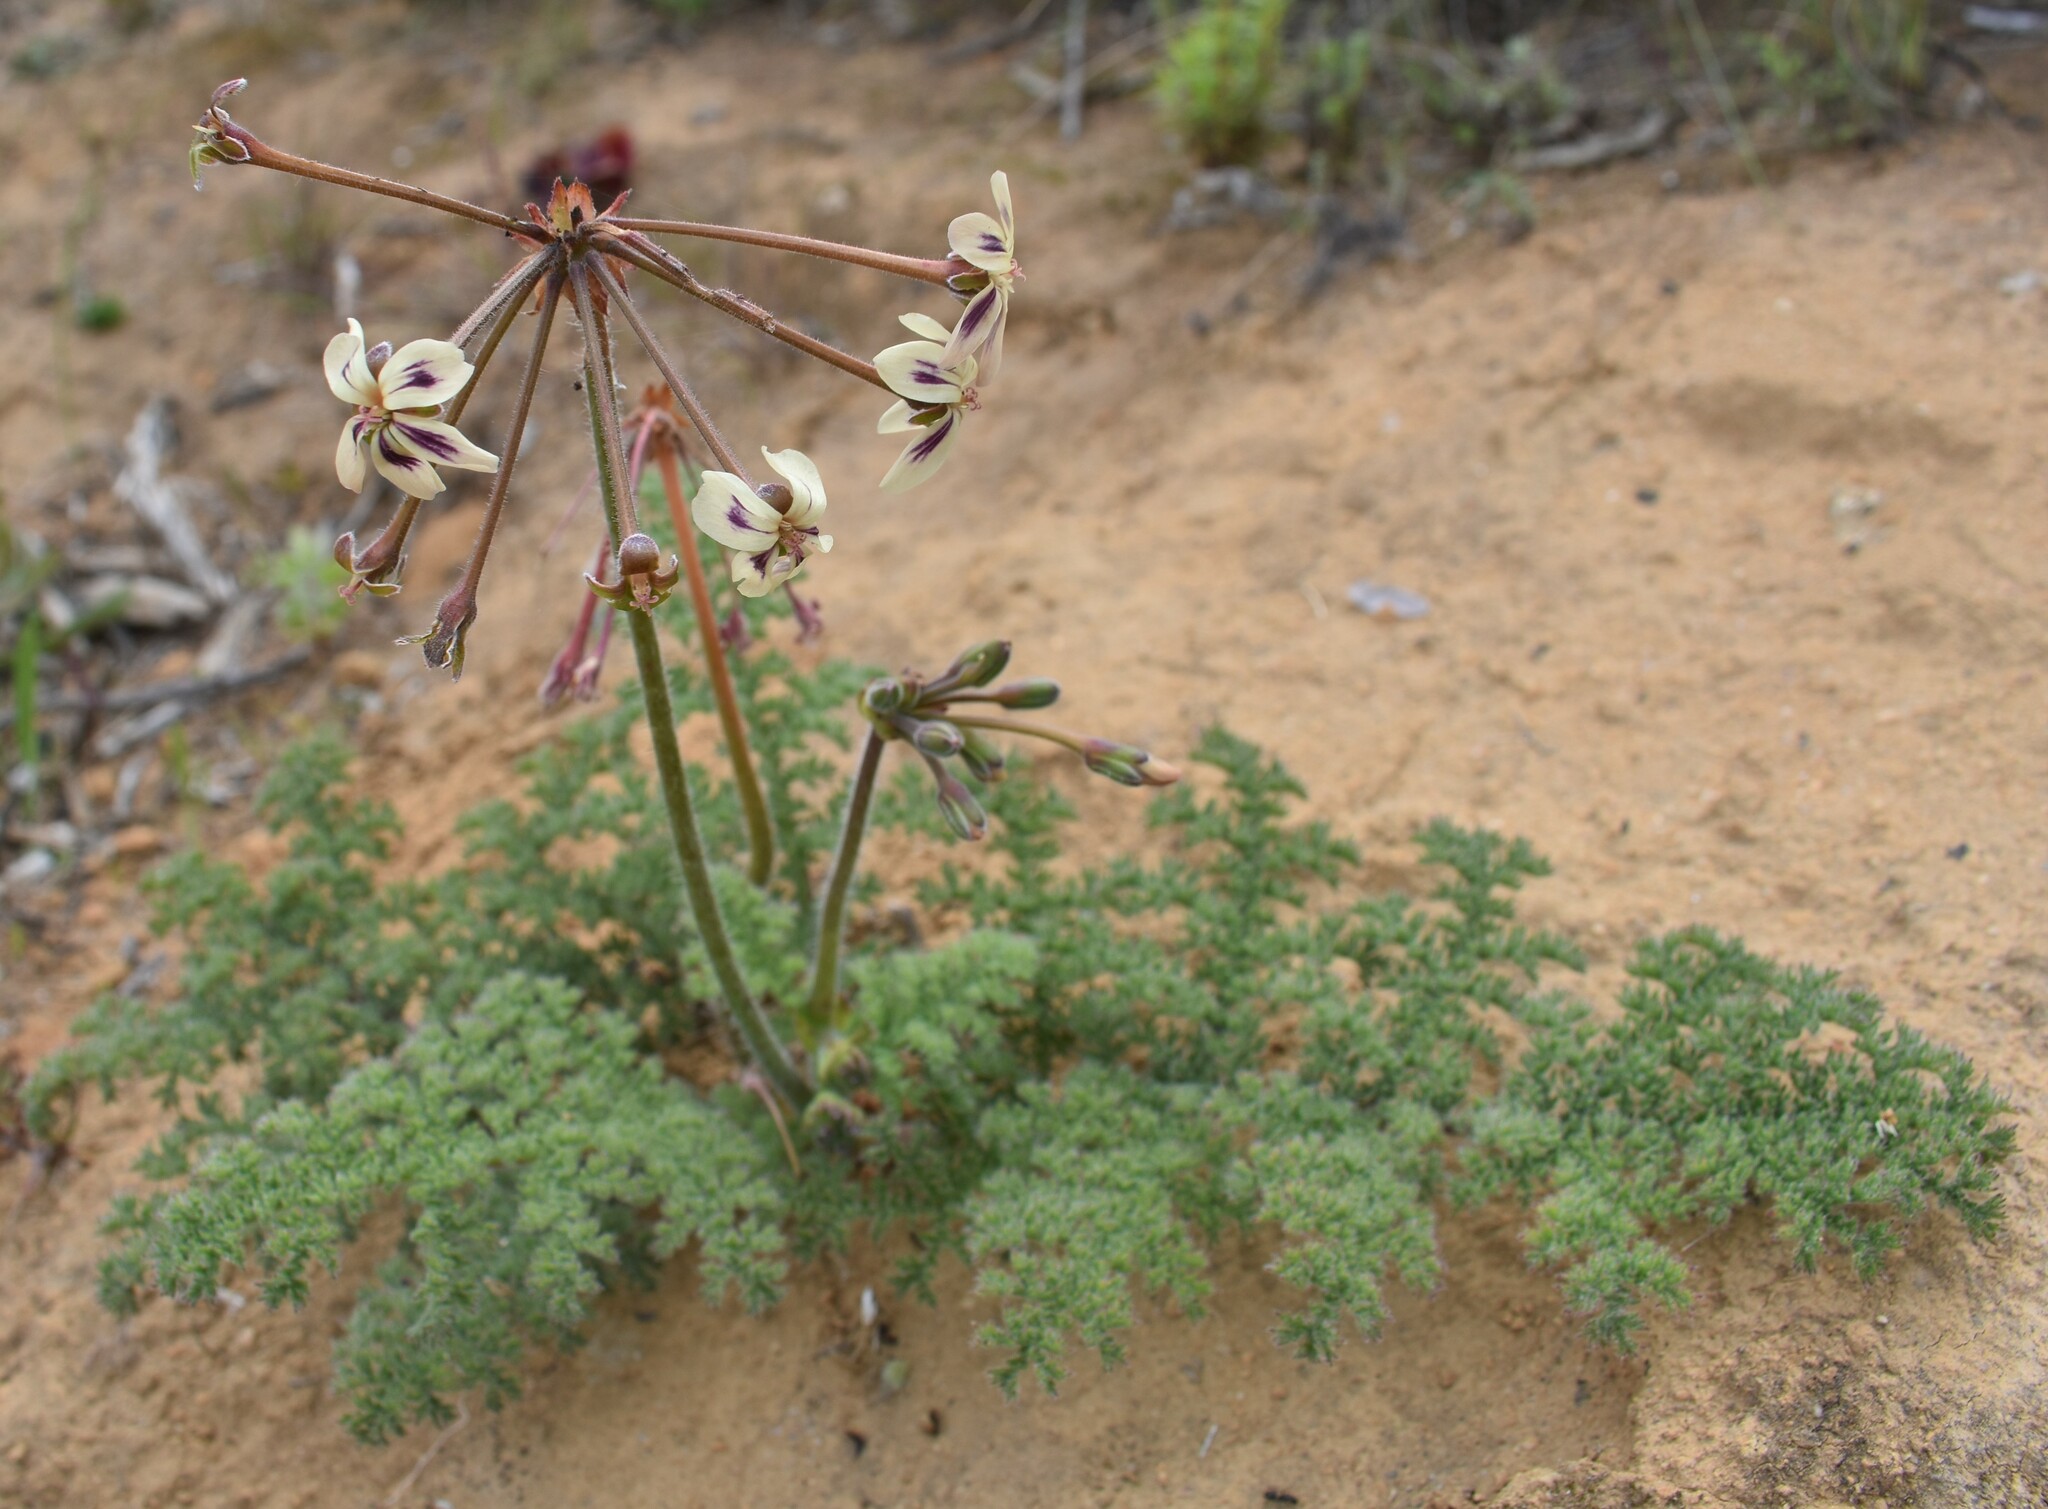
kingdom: Plantae
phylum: Tracheophyta
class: Magnoliopsida
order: Geraniales
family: Geraniaceae
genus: Pelargonium
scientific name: Pelargonium triste
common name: Night-scent pelargonium
